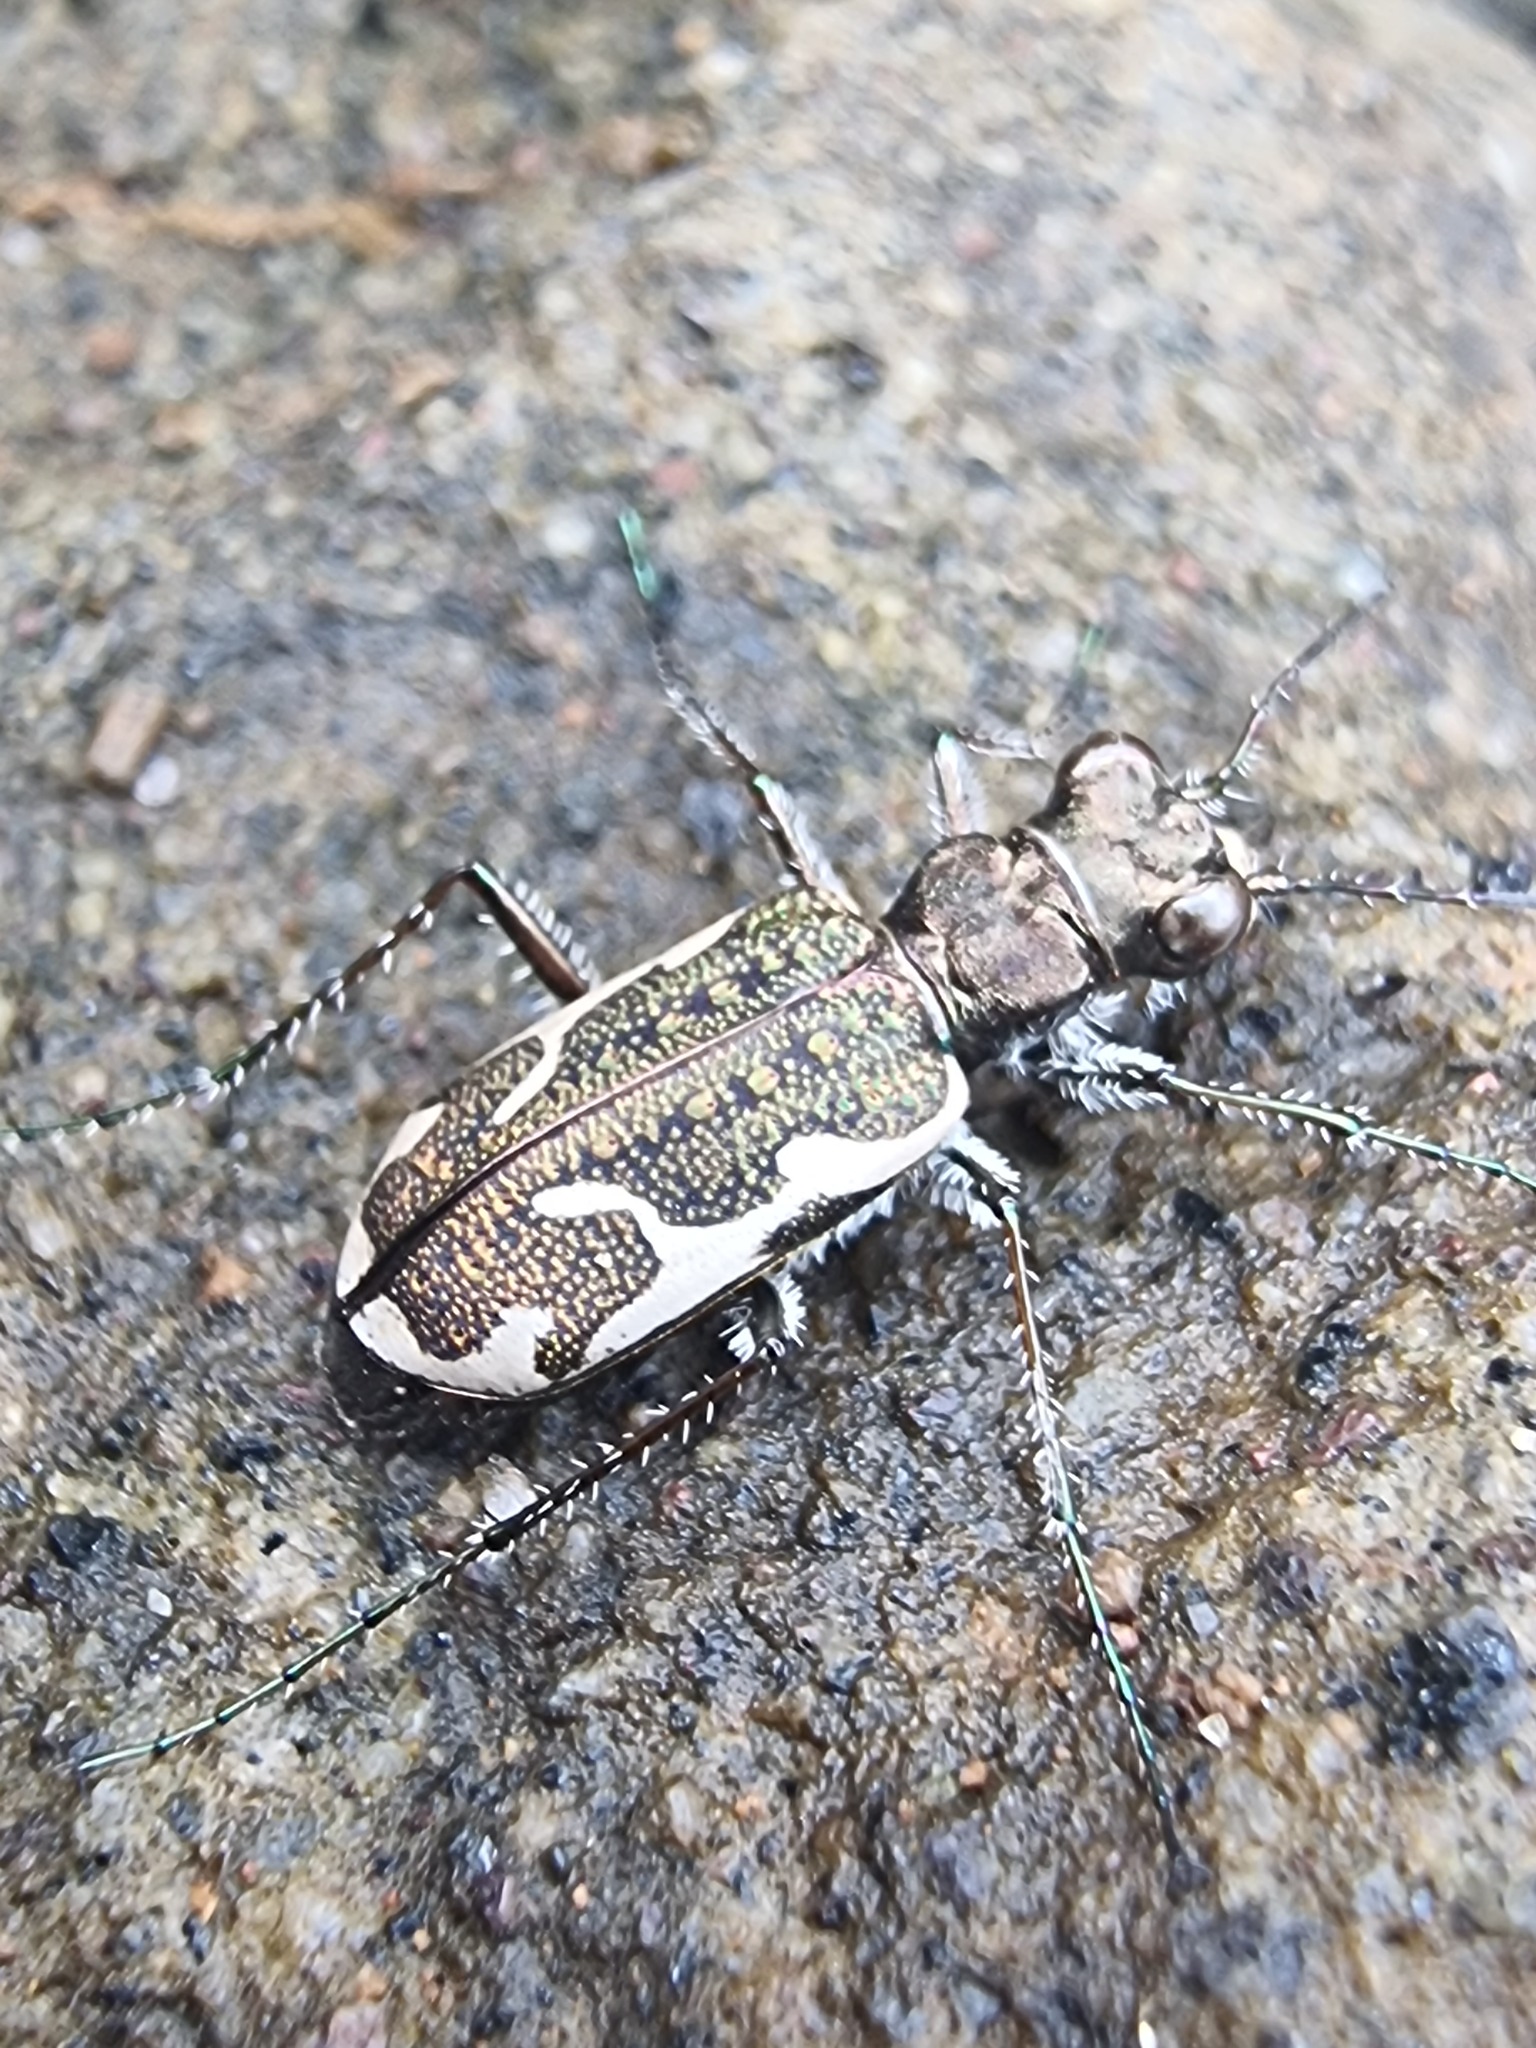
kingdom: Animalia
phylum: Arthropoda
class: Insecta
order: Coleoptera
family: Carabidae
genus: Neocicindela
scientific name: Neocicindela tuberculata
